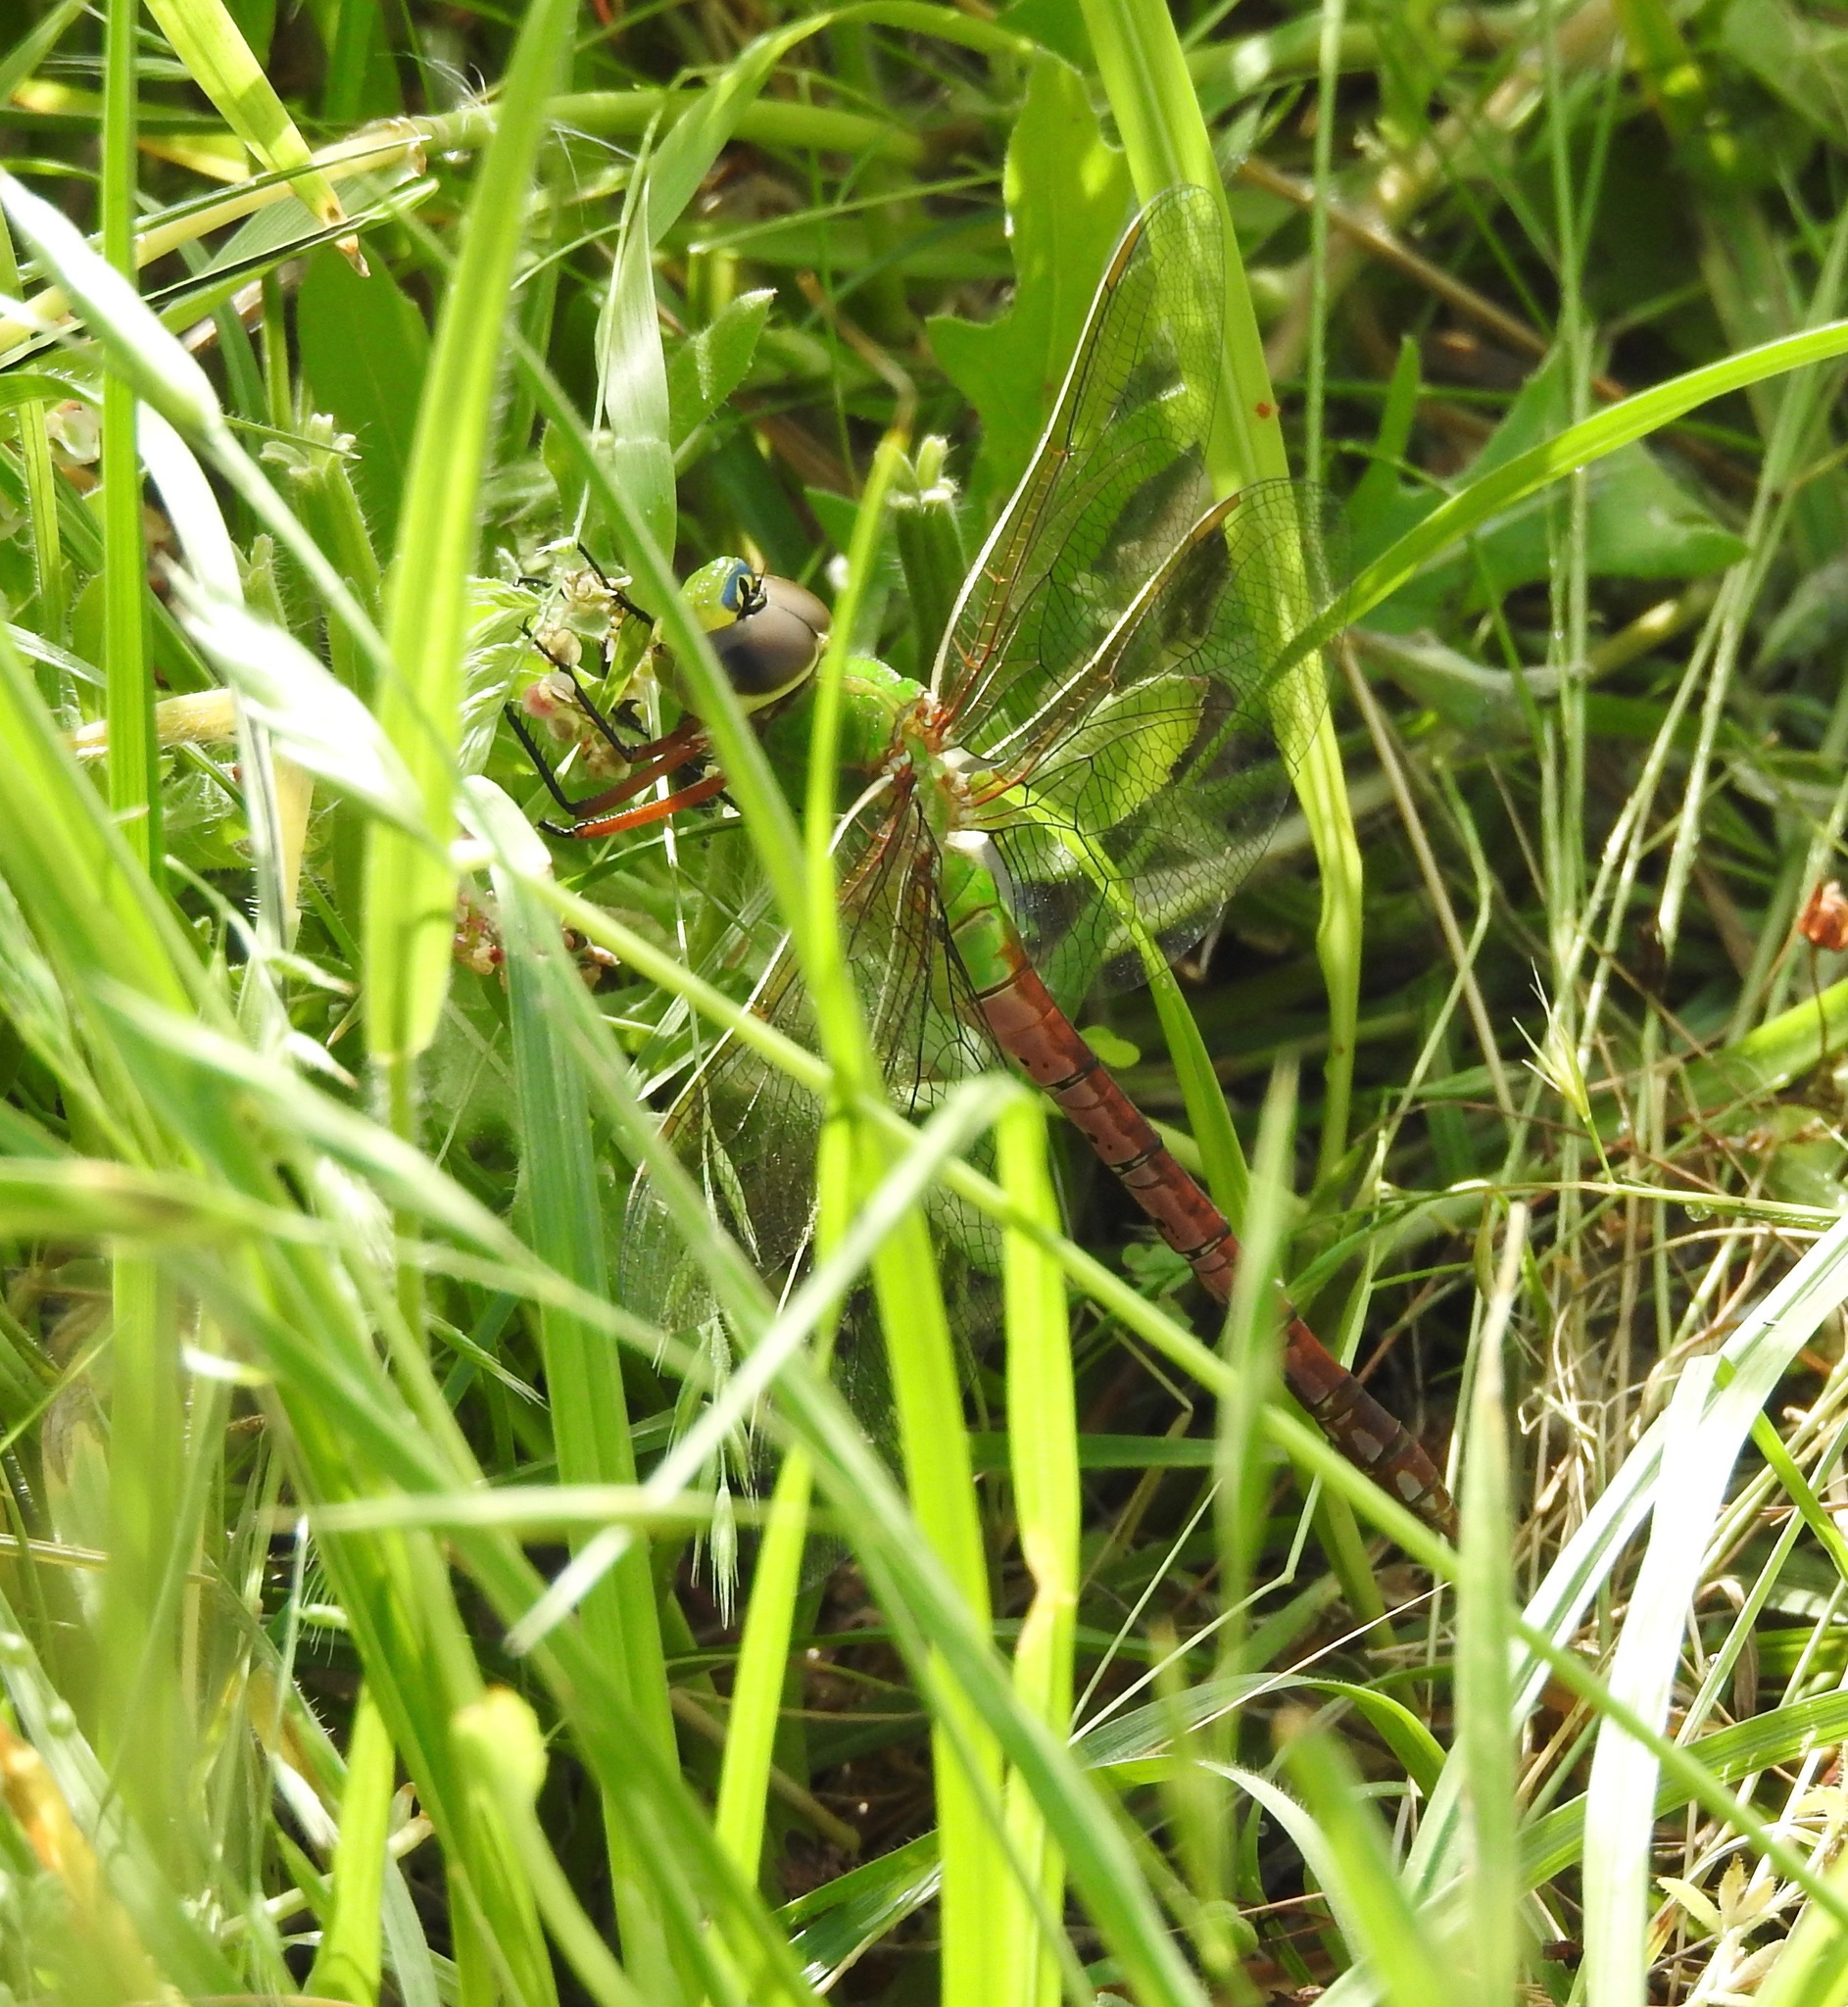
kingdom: Animalia
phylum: Arthropoda
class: Insecta
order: Odonata
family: Aeshnidae
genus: Anax
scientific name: Anax junius
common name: Common green darner
